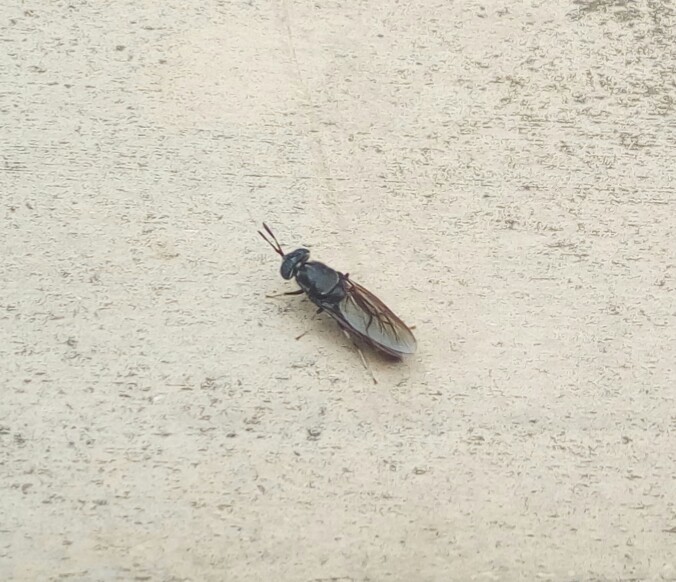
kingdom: Animalia
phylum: Arthropoda
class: Insecta
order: Diptera
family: Stratiomyidae
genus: Hermetia
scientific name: Hermetia illucens
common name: Black soldier fly
